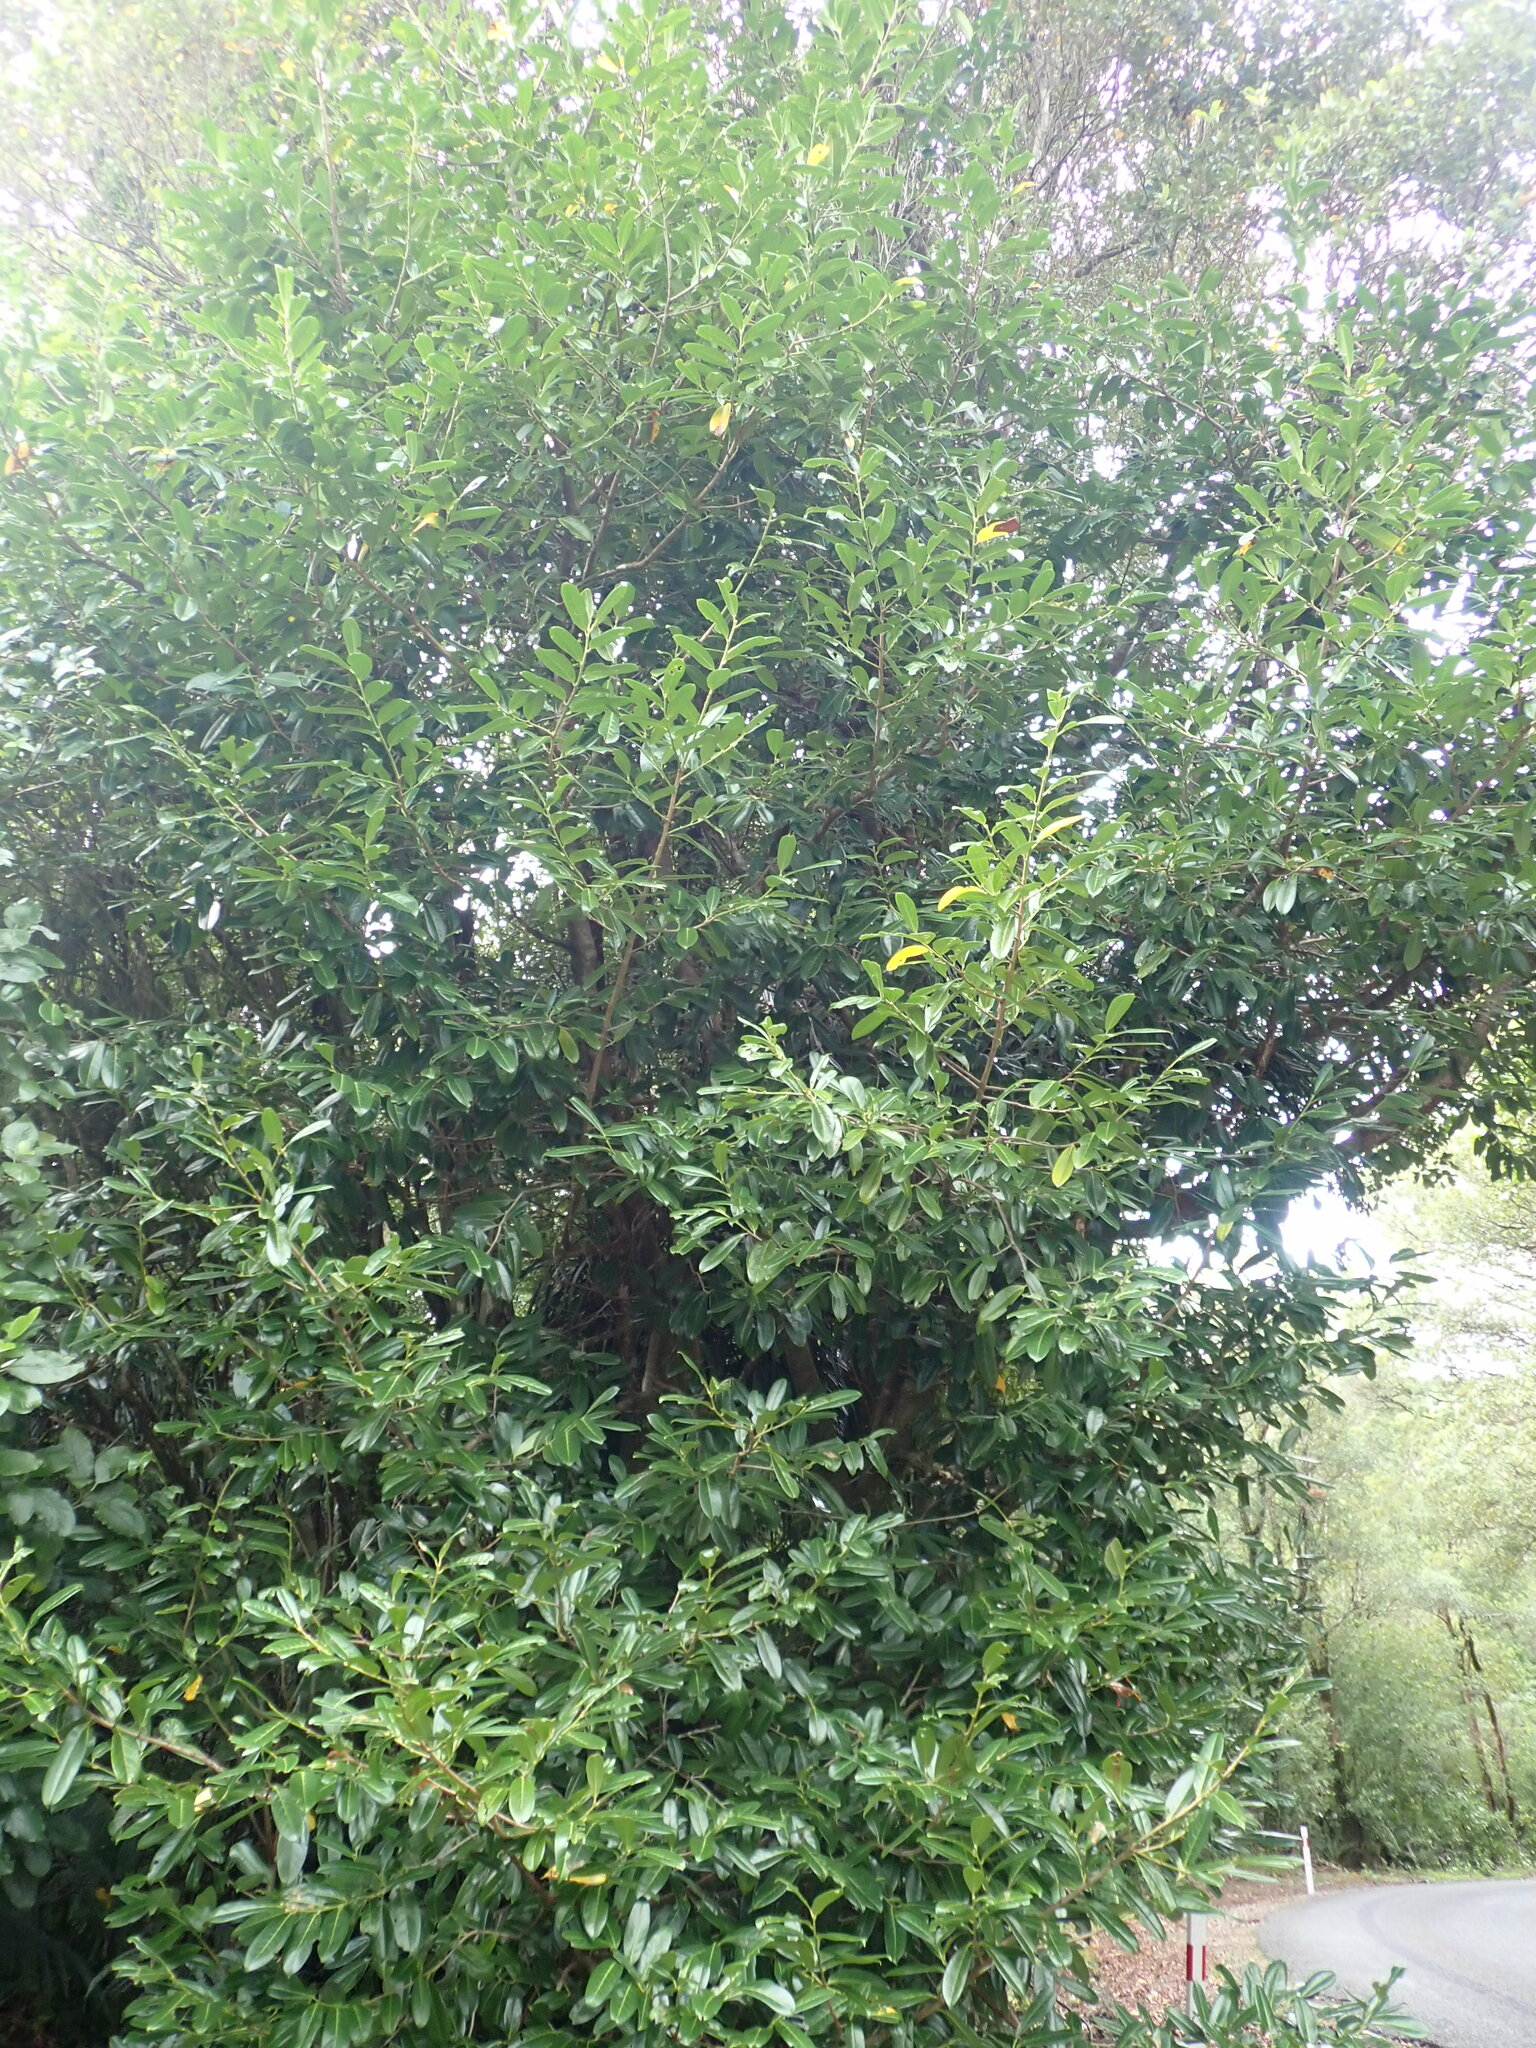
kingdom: Plantae
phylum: Tracheophyta
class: Magnoliopsida
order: Rosales
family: Rosaceae
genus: Prunus
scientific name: Prunus laurocerasus
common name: Cherry laurel
